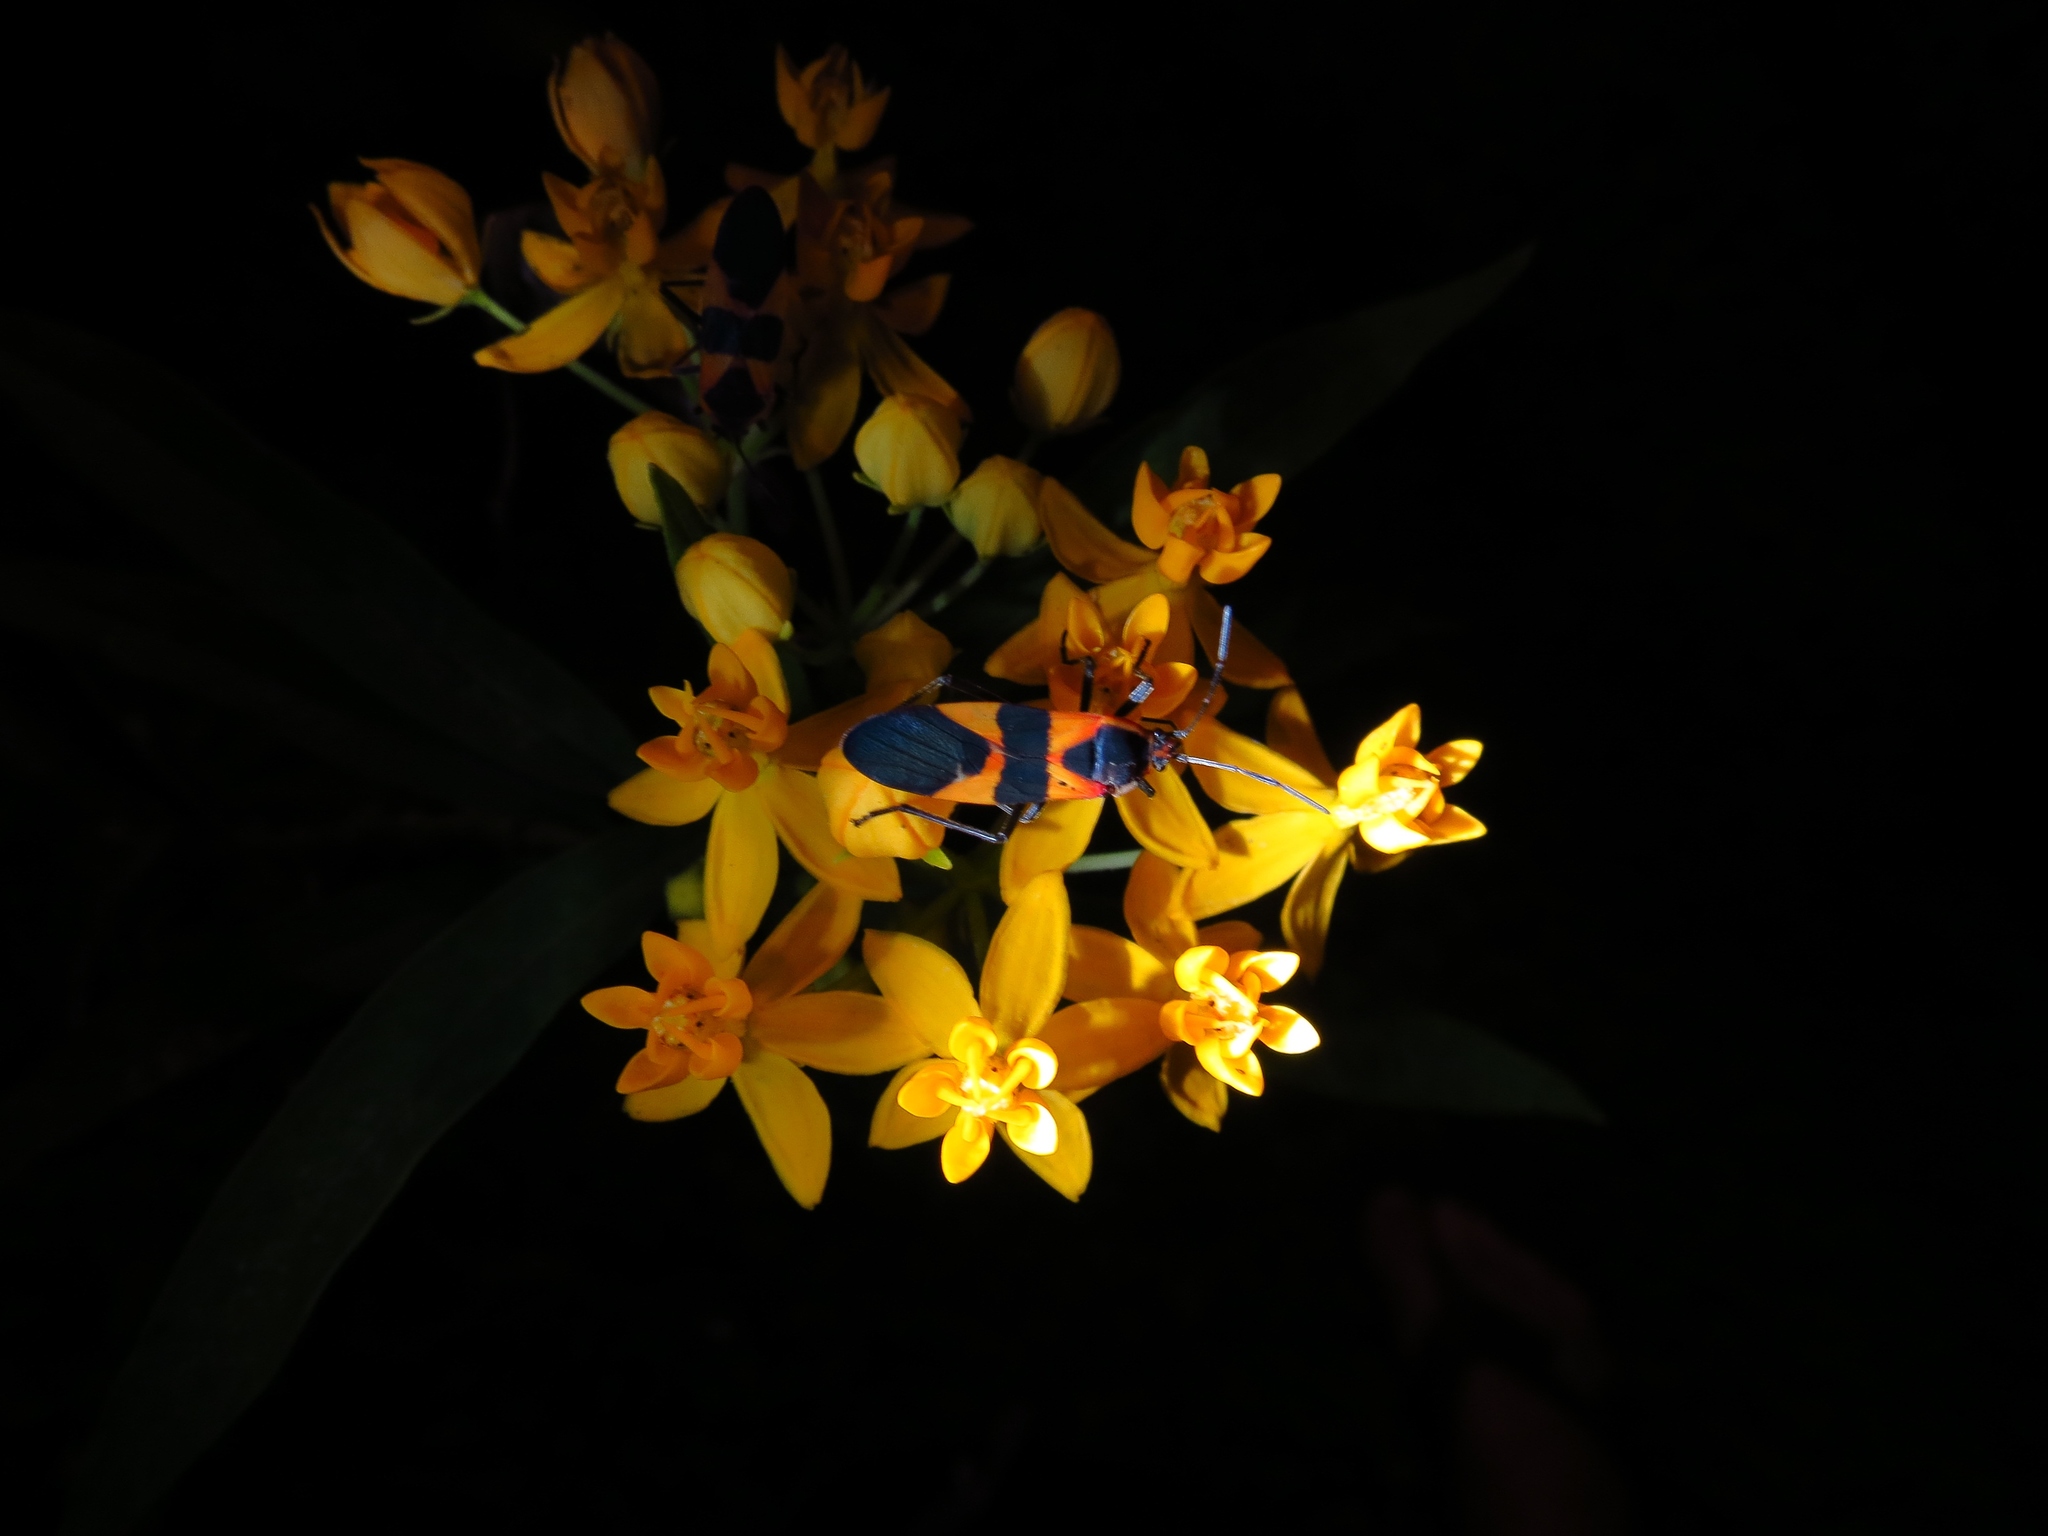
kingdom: Animalia
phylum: Arthropoda
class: Insecta
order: Hemiptera
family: Lygaeidae
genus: Oncopeltus
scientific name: Oncopeltus fasciatus
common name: Large milkweed bug
